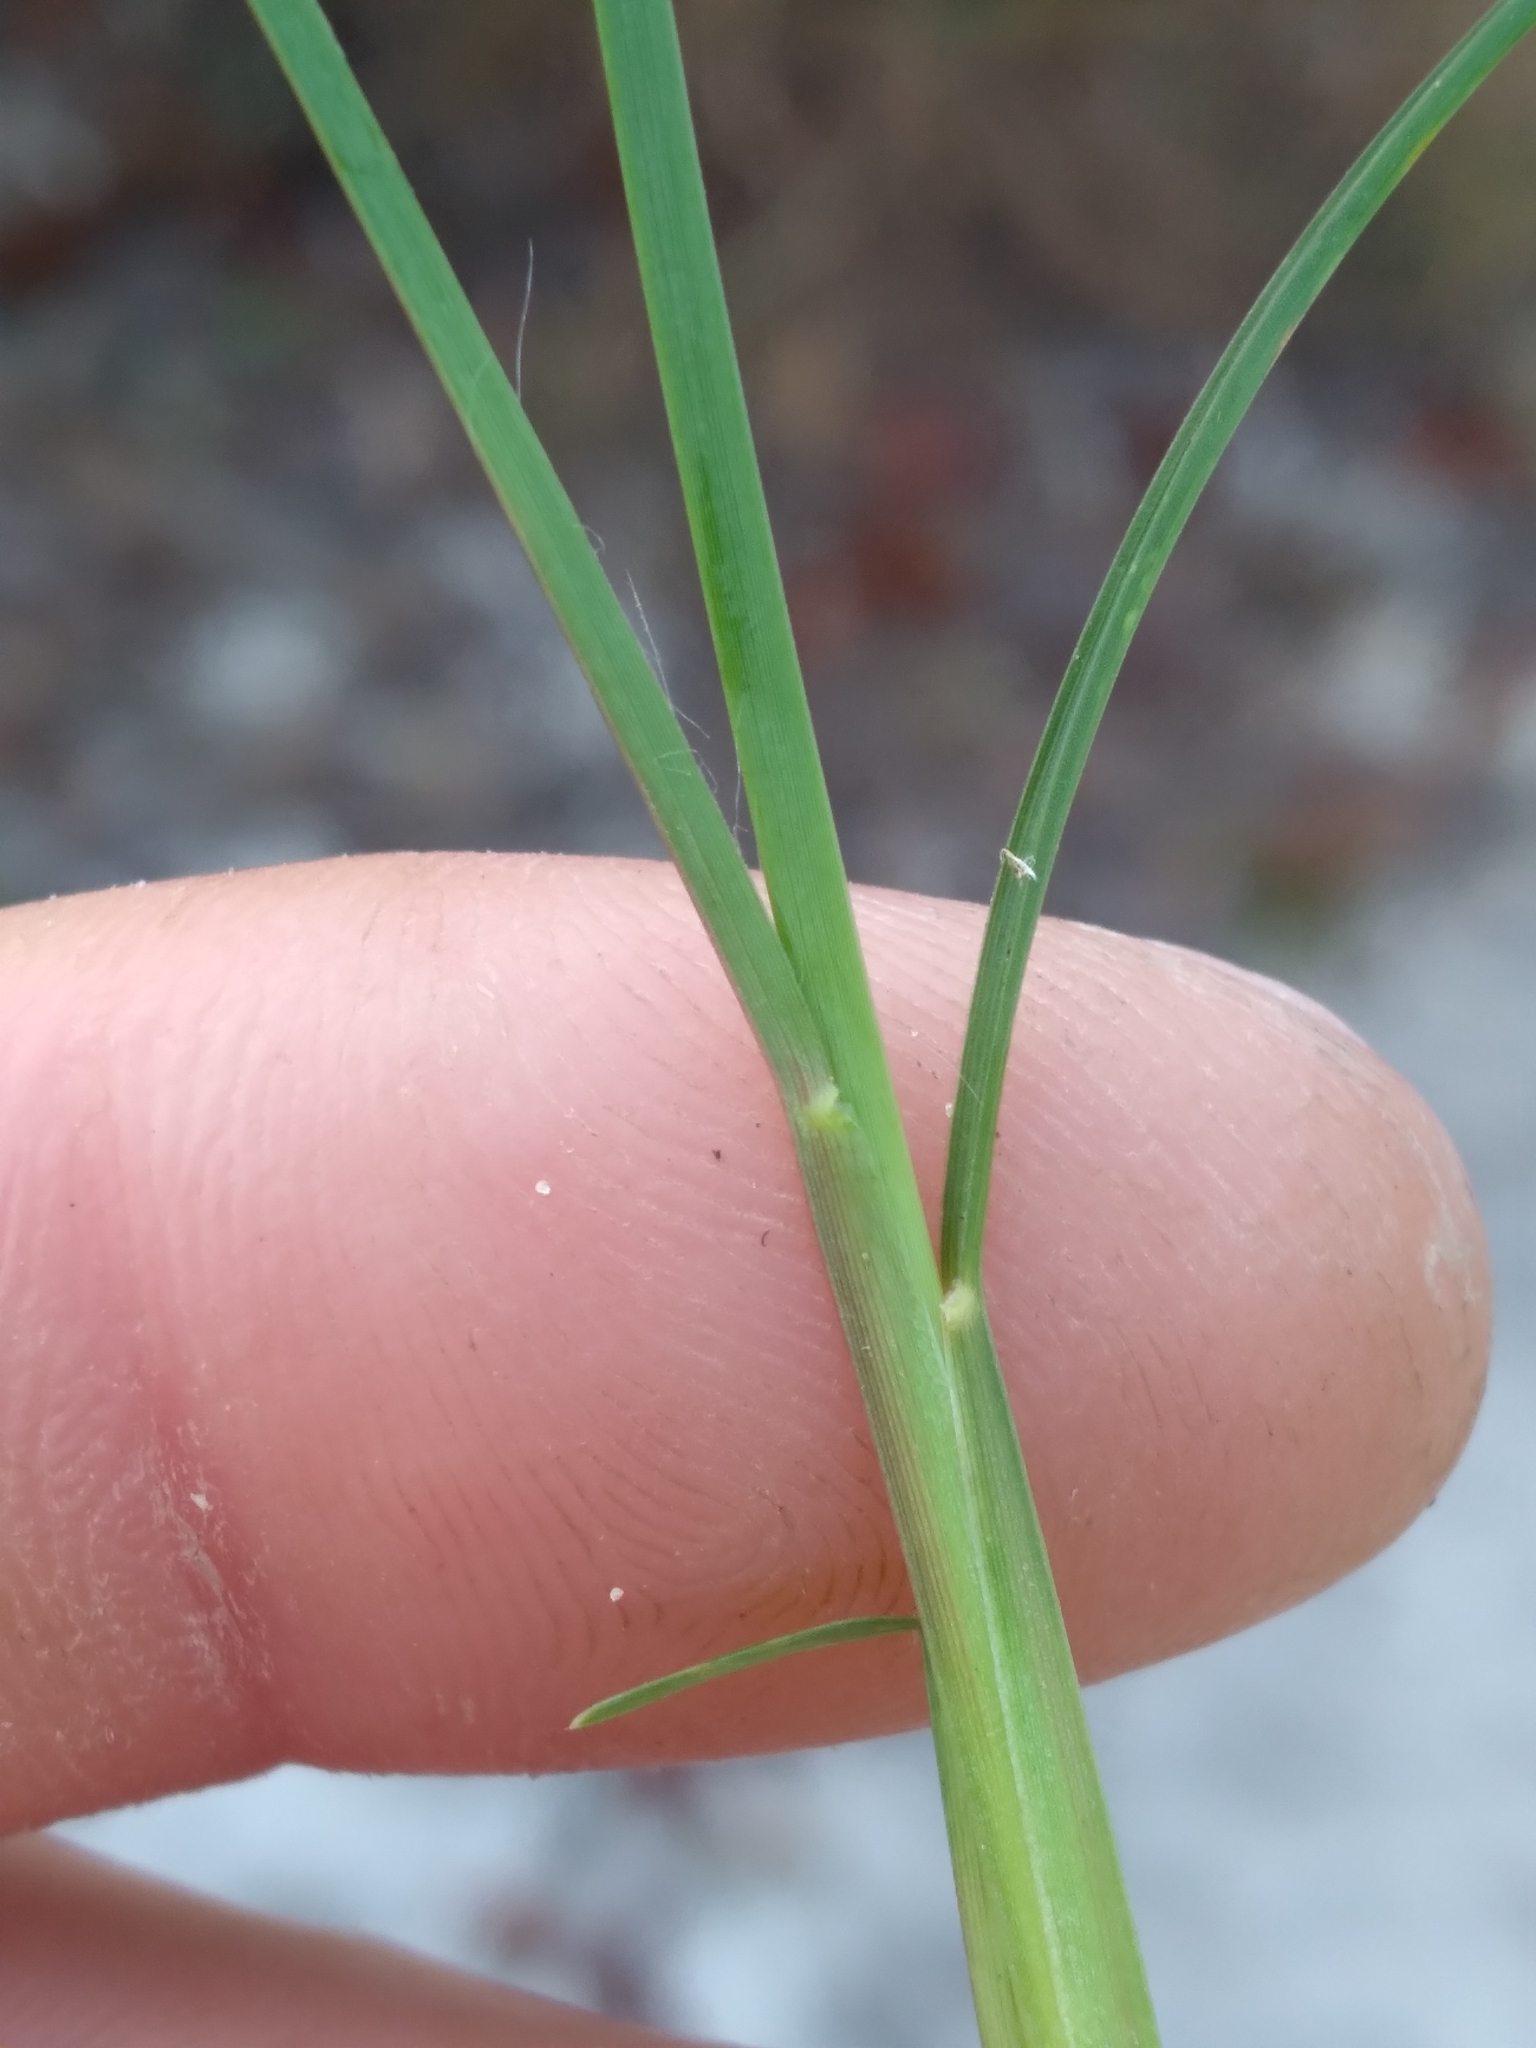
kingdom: Plantae
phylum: Tracheophyta
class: Liliopsida
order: Poales
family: Poaceae
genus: Andropogon
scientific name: Andropogon tracyi
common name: Tracy's bluestem
